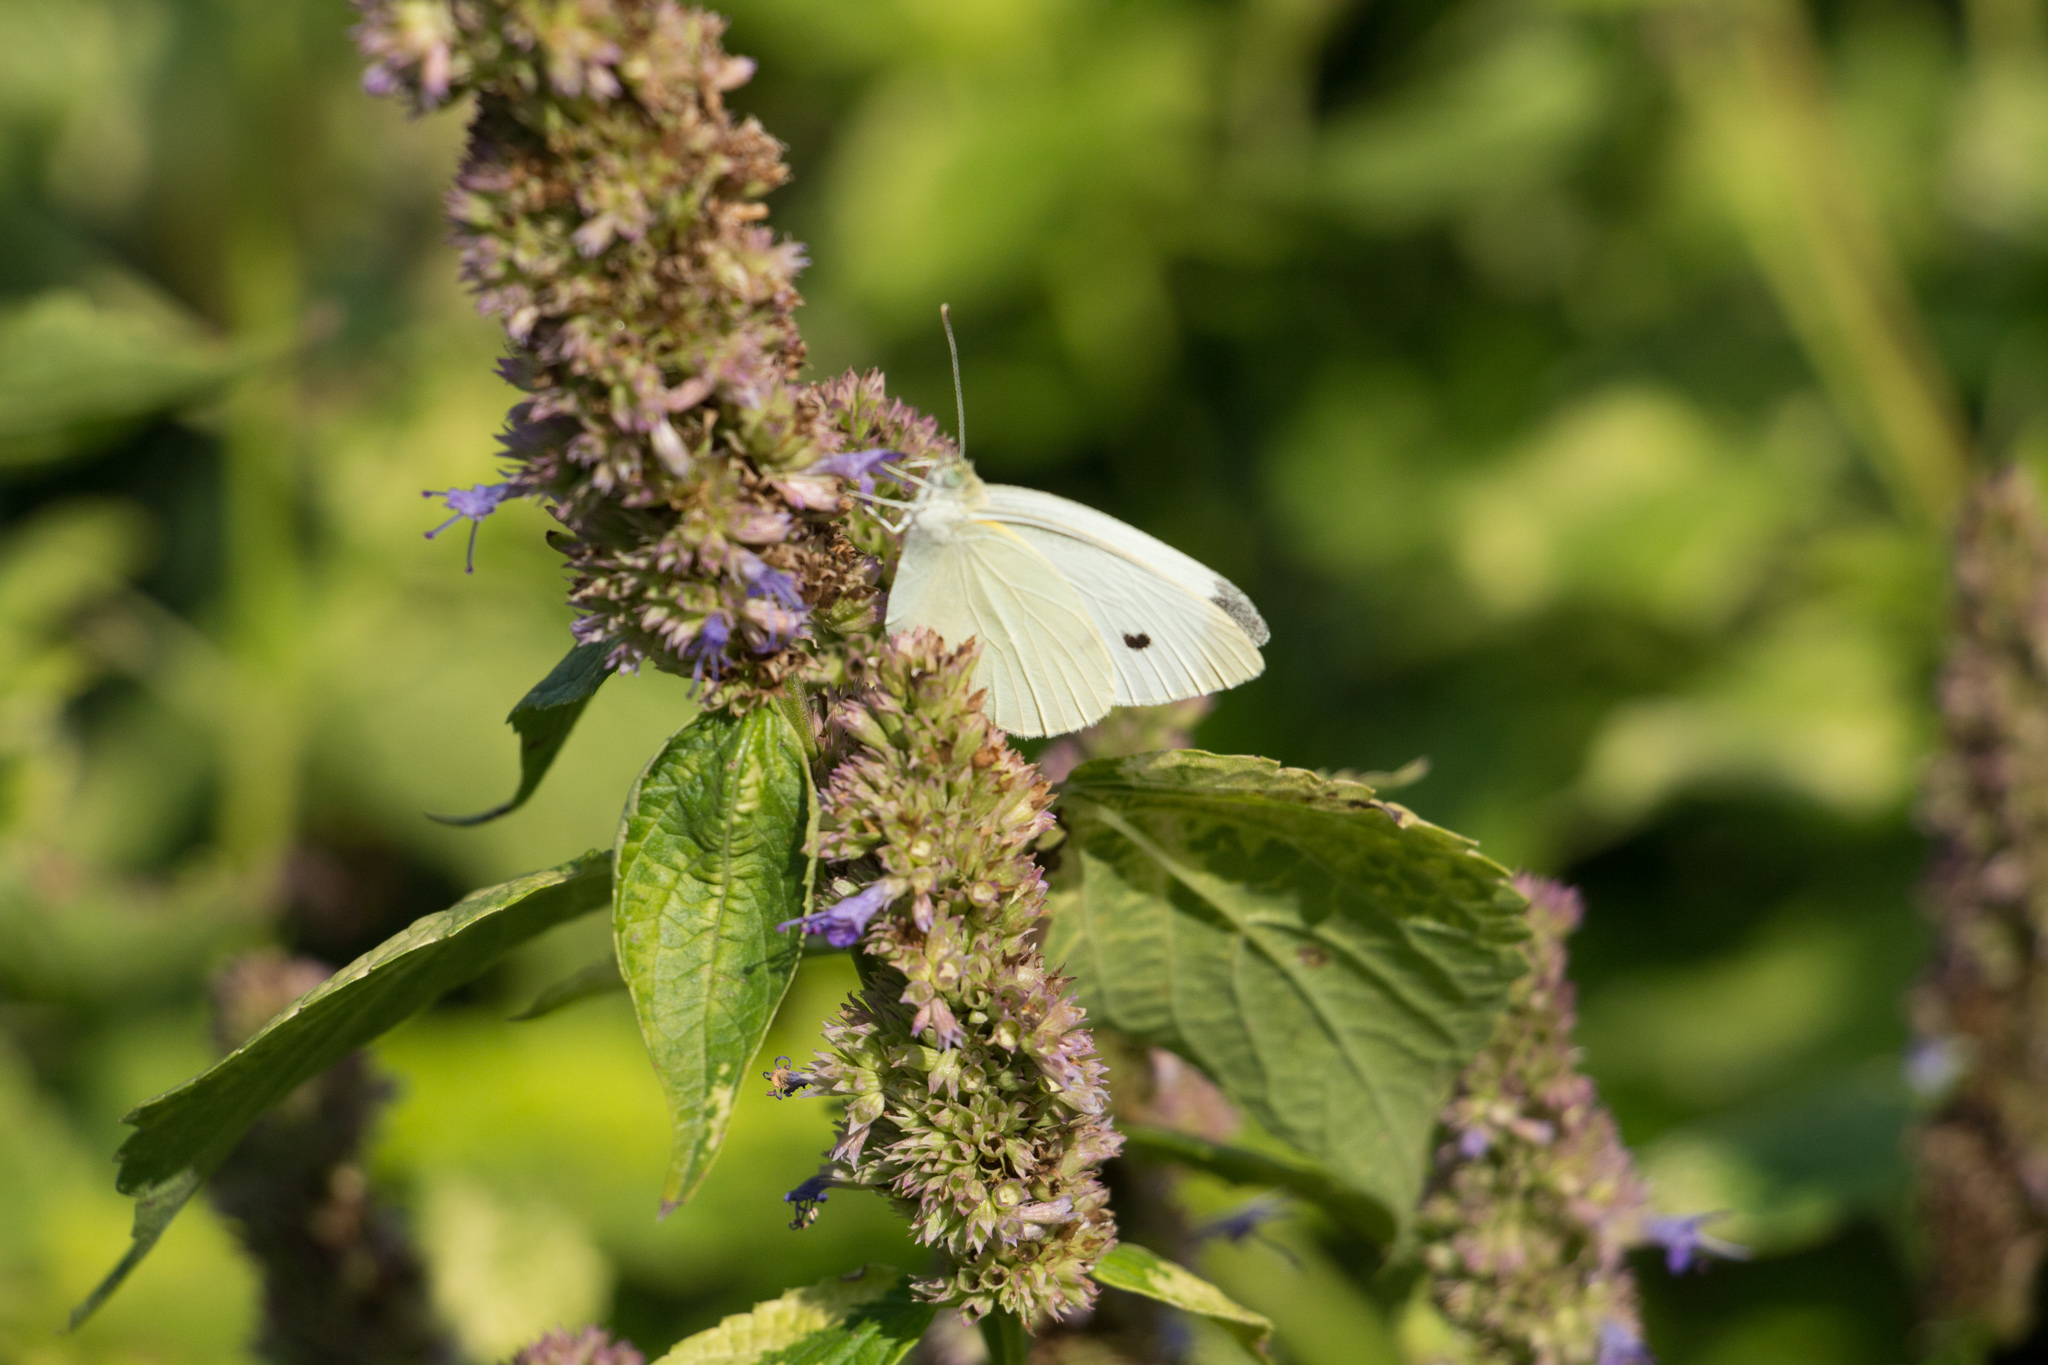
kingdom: Animalia
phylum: Arthropoda
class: Insecta
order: Lepidoptera
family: Pieridae
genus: Pieris
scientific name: Pieris rapae
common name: Small white
